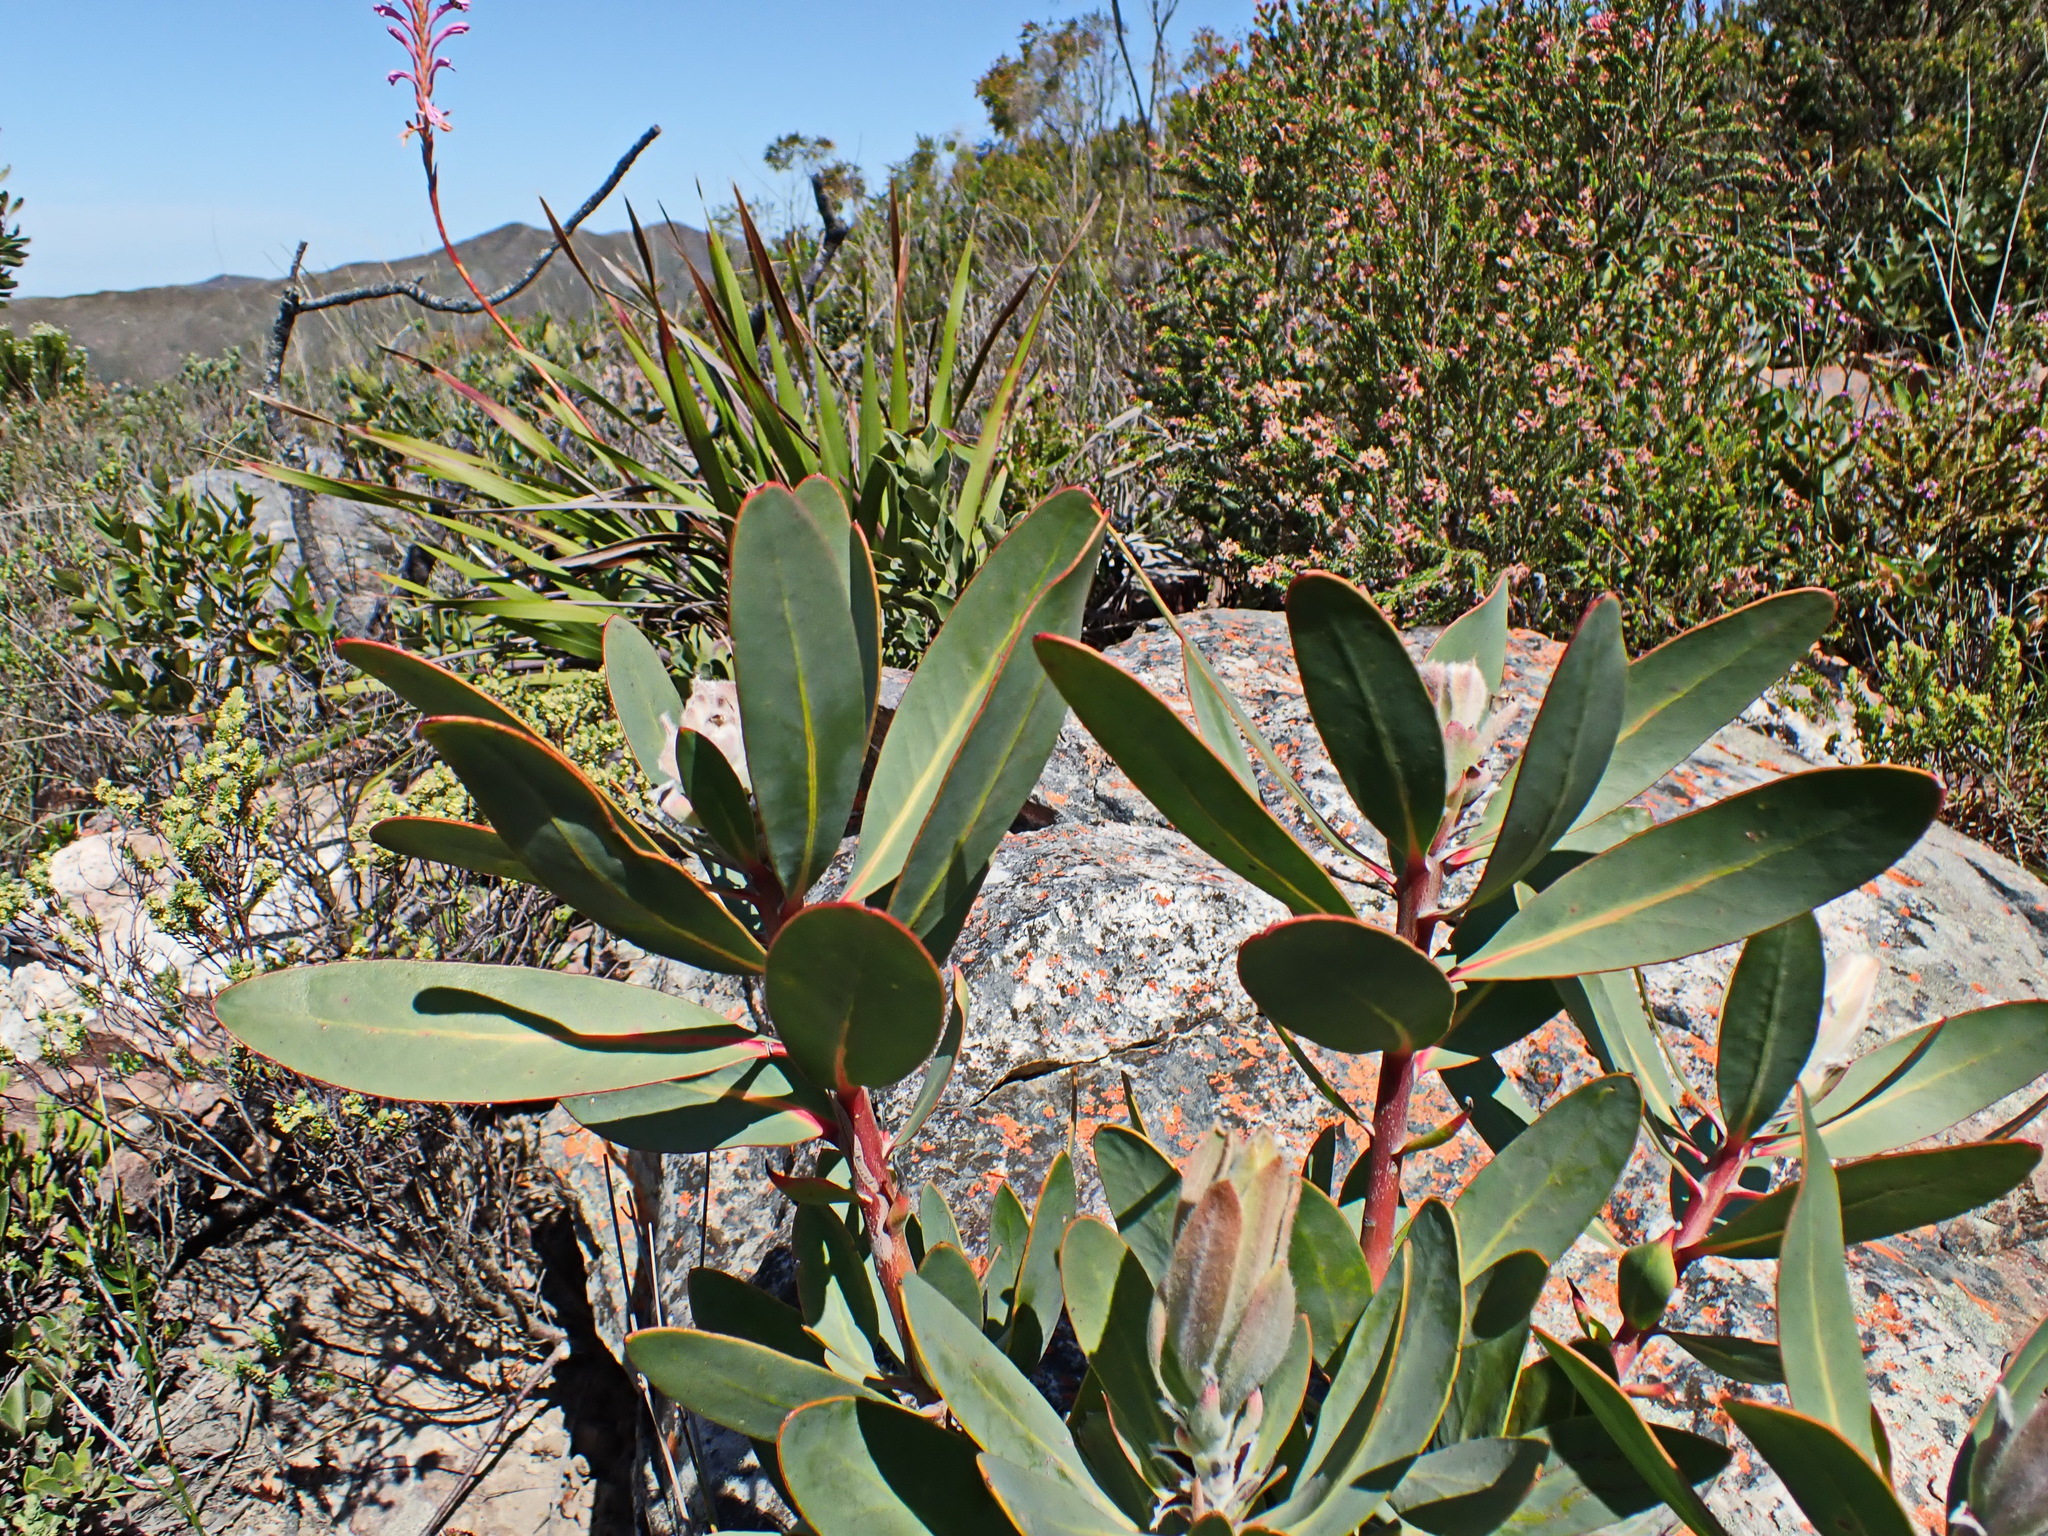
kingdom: Plantae
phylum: Tracheophyta
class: Magnoliopsida
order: Proteales
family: Proteaceae
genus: Protea
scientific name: Protea lorifolia
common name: Strap-leaved protea
